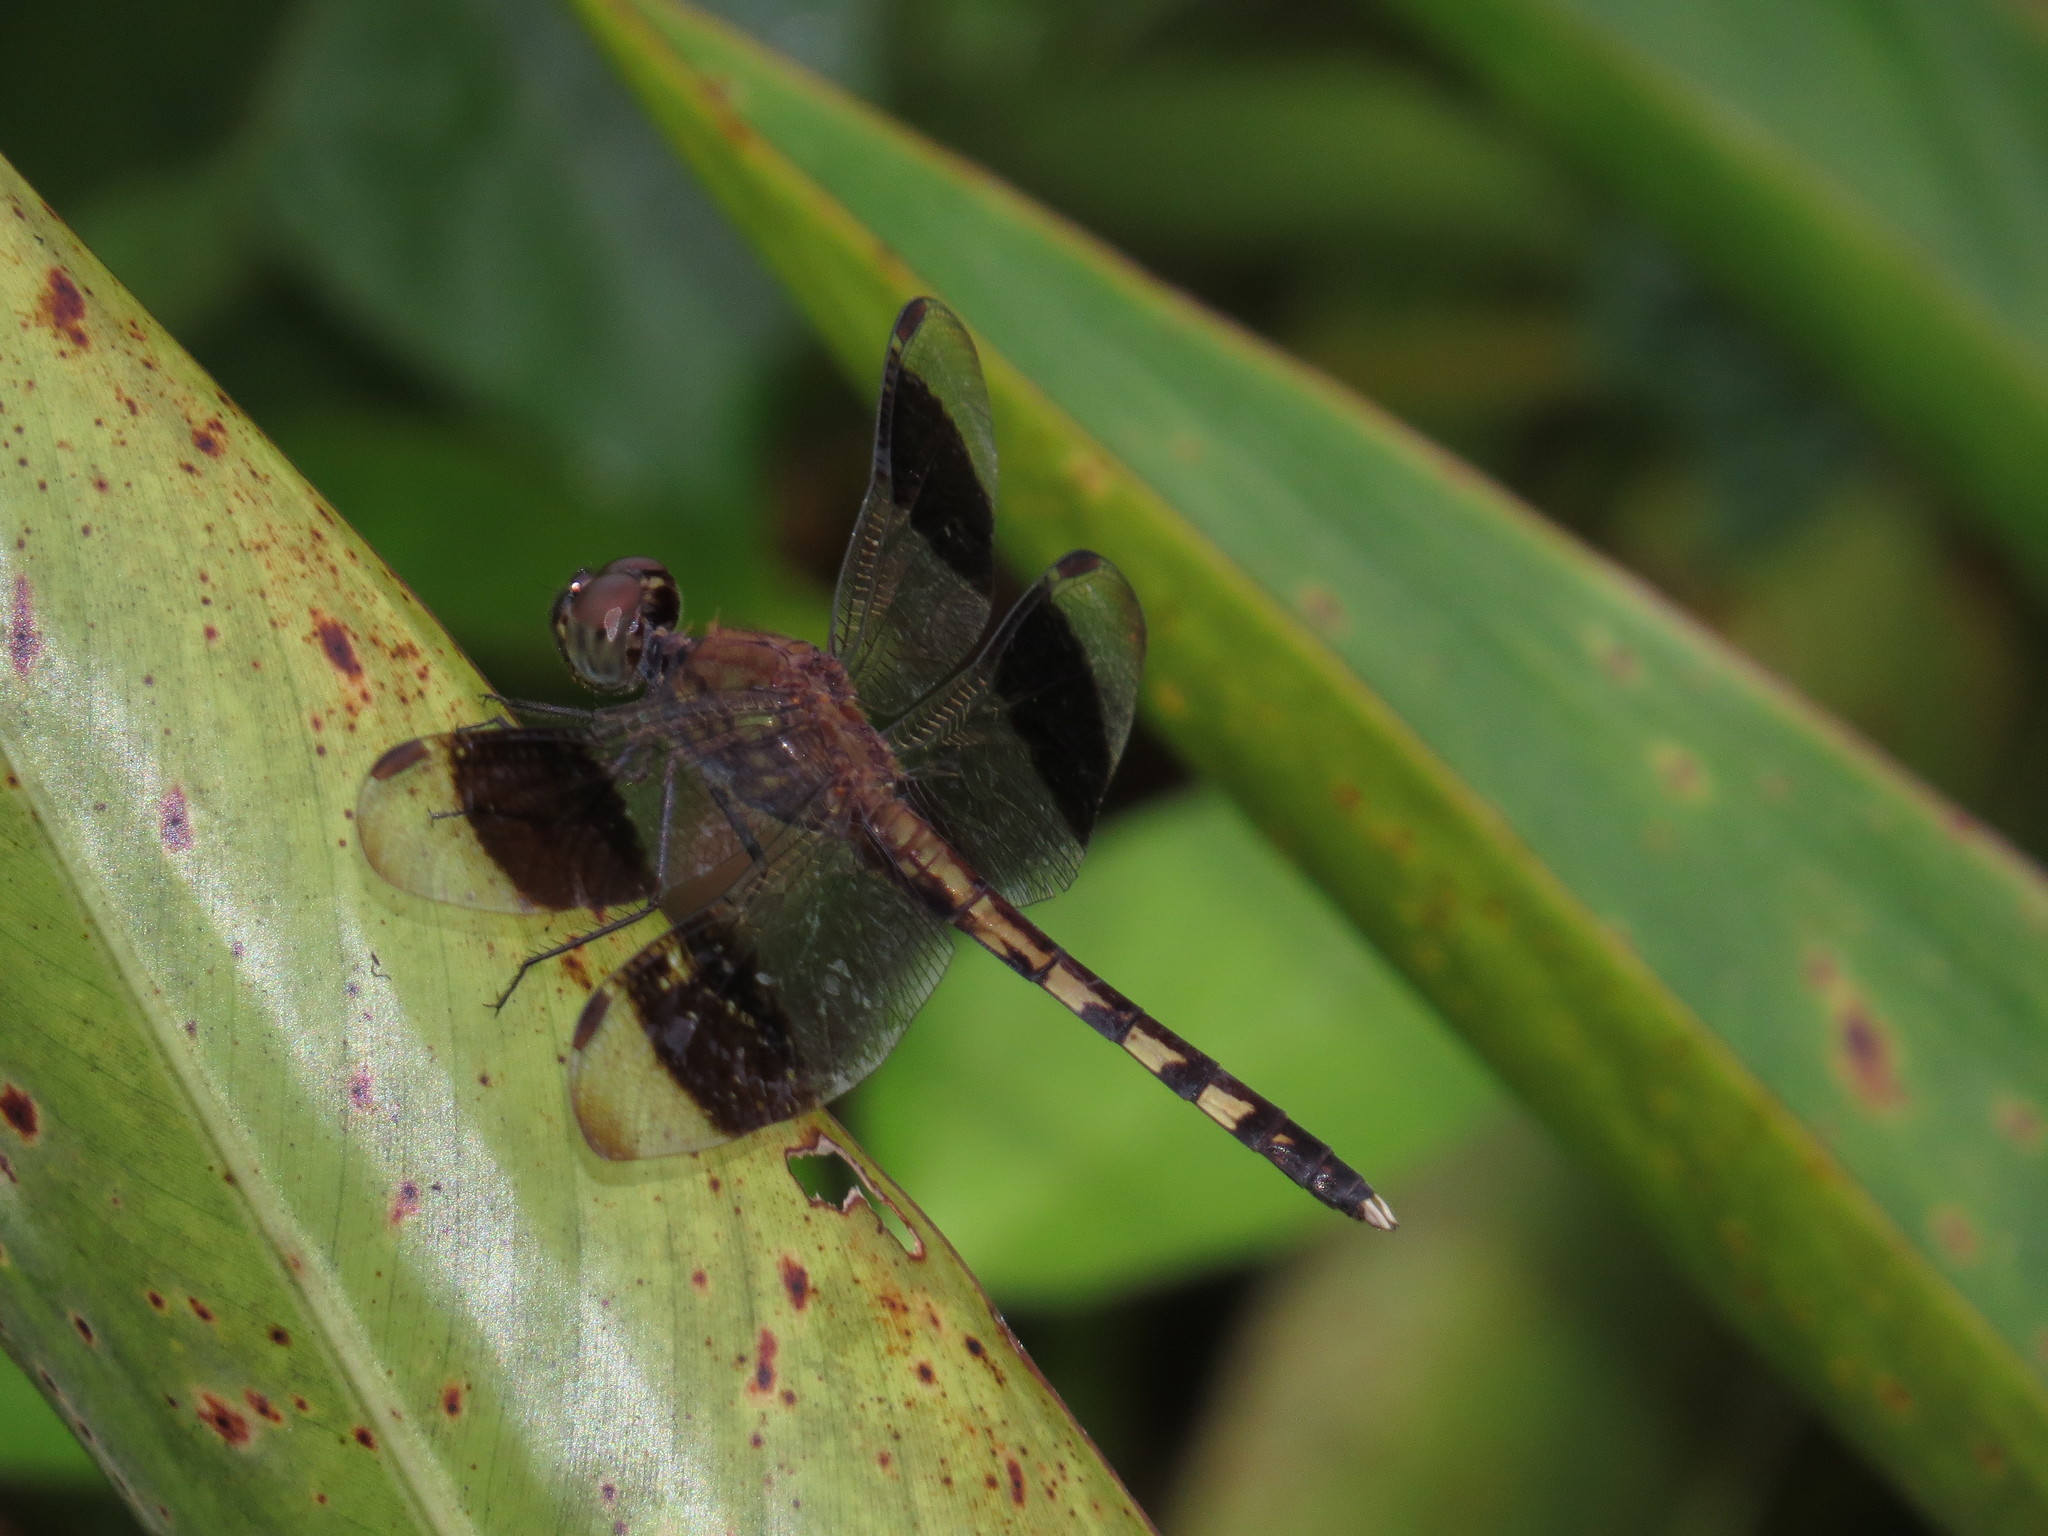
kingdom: Animalia
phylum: Arthropoda
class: Insecta
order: Odonata
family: Libellulidae
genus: Erythrodiplax
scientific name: Erythrodiplax umbrata
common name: Band-winged dragonlet
